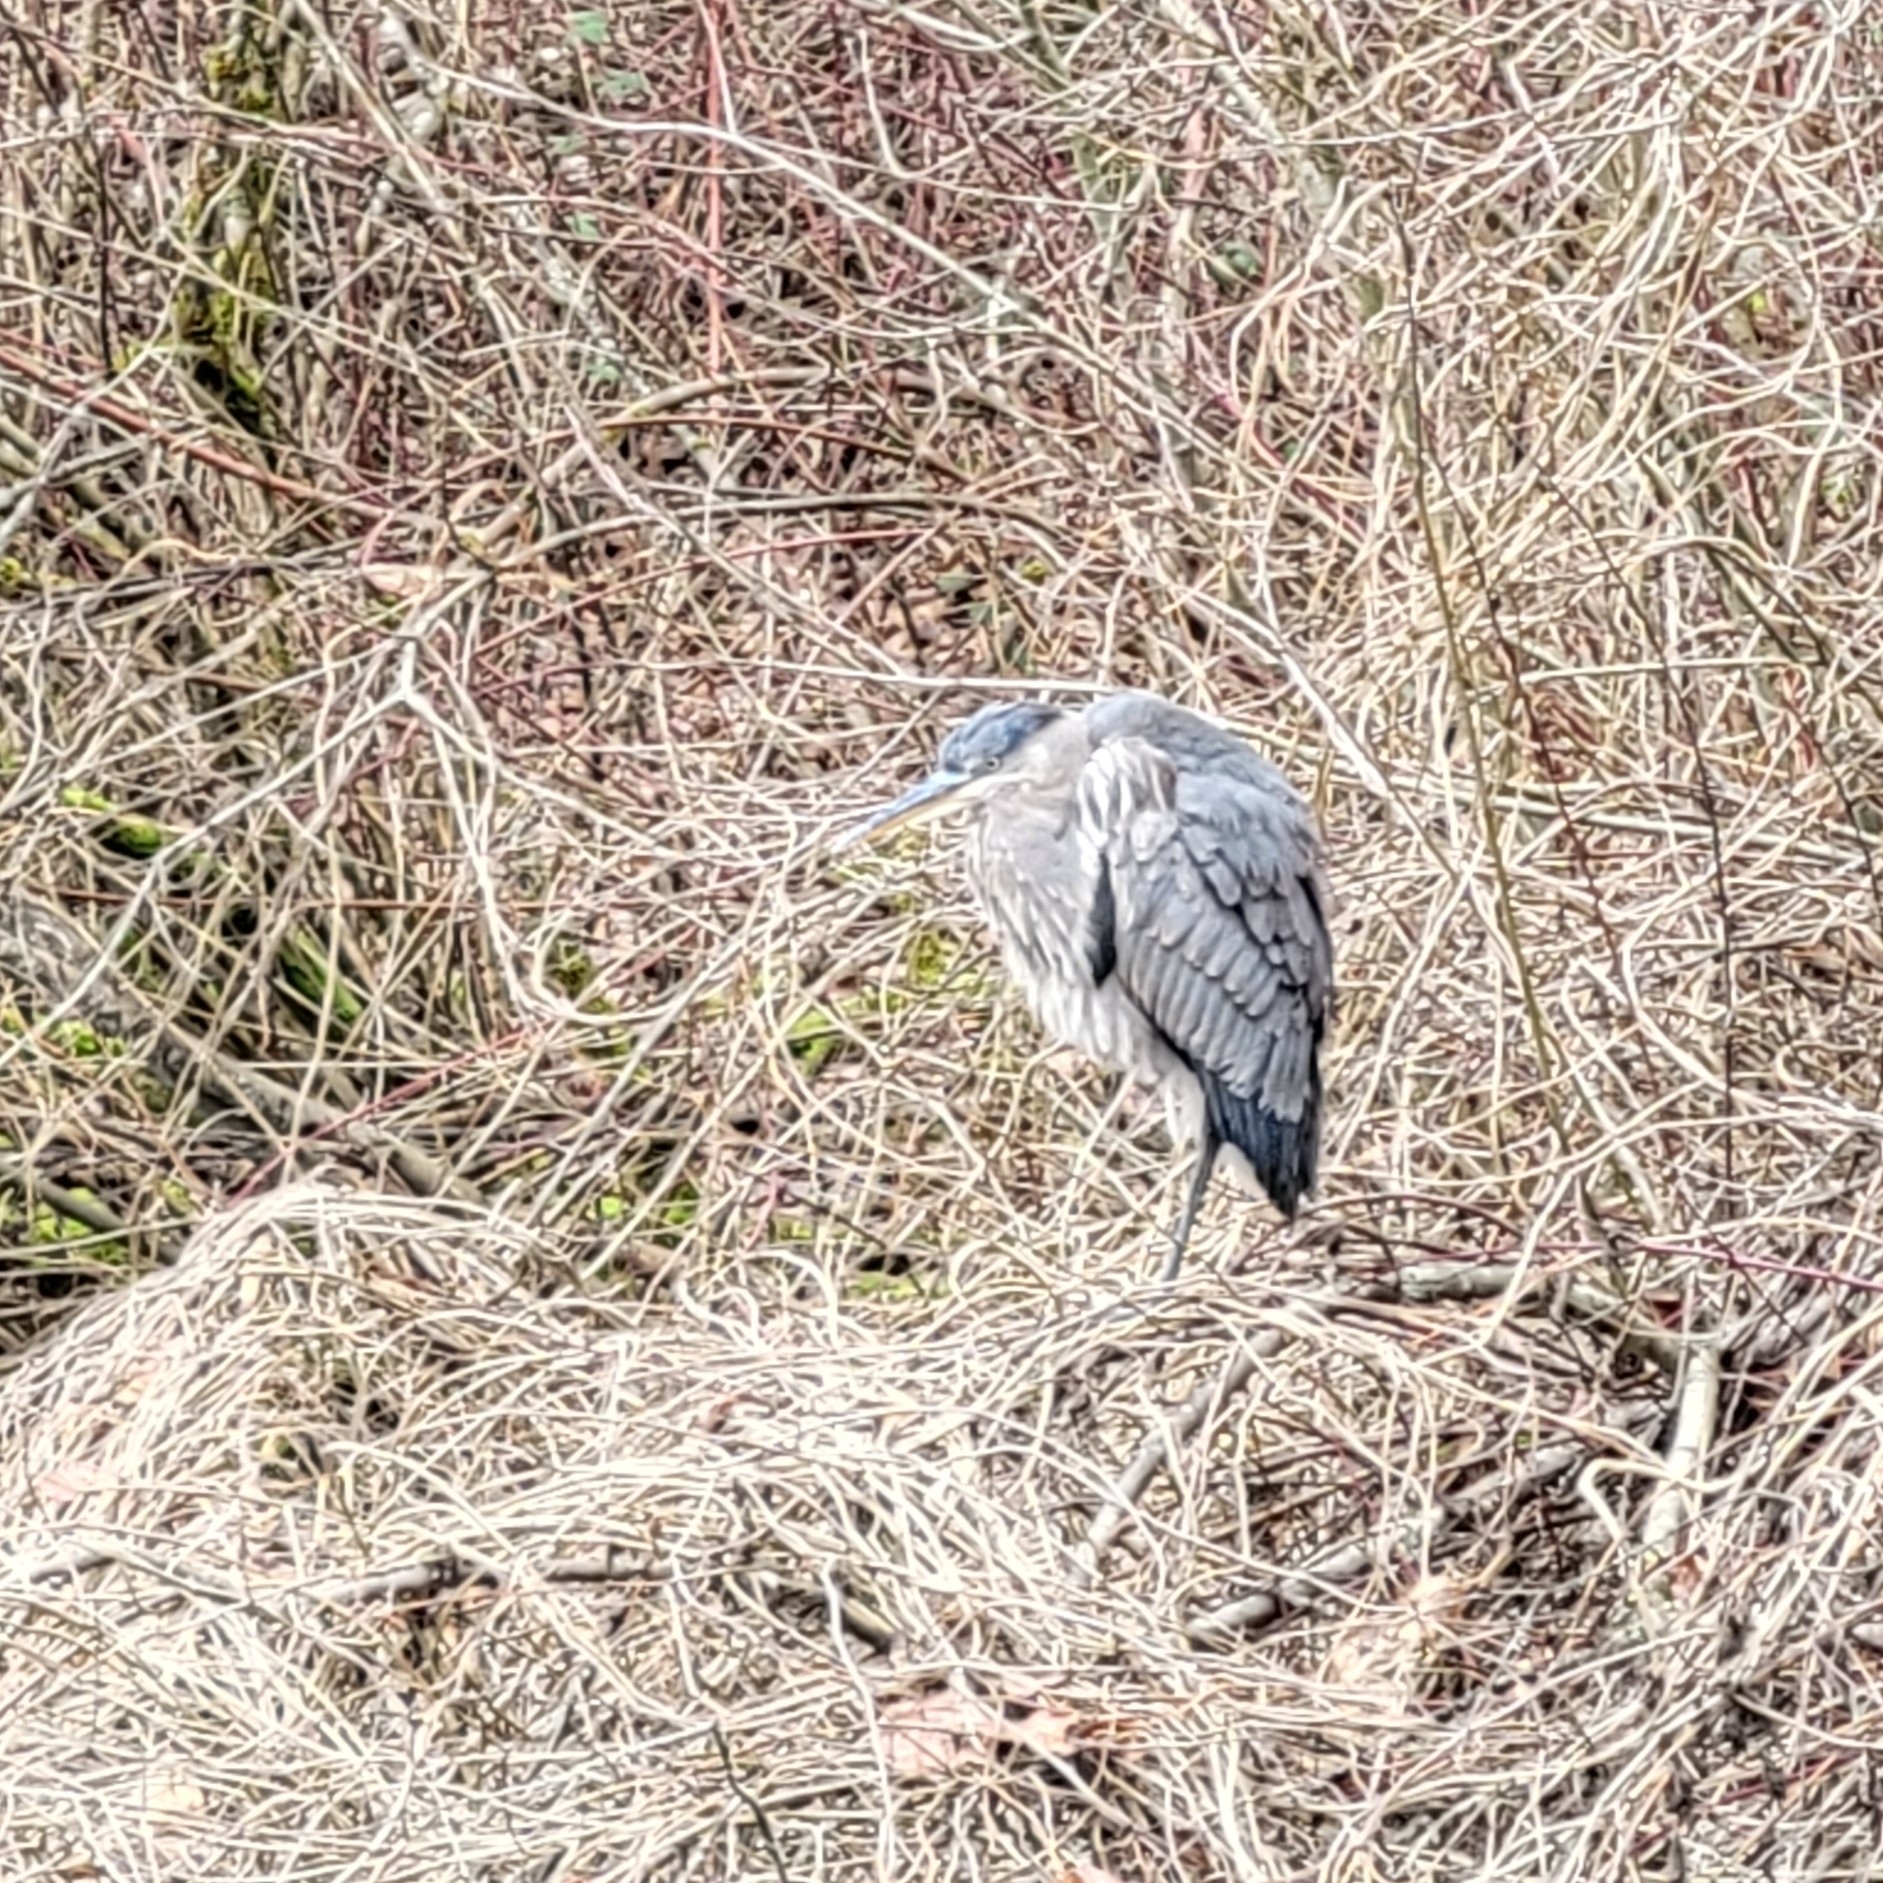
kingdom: Animalia
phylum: Chordata
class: Aves
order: Pelecaniformes
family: Ardeidae
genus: Ardea
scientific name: Ardea herodias
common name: Great blue heron
